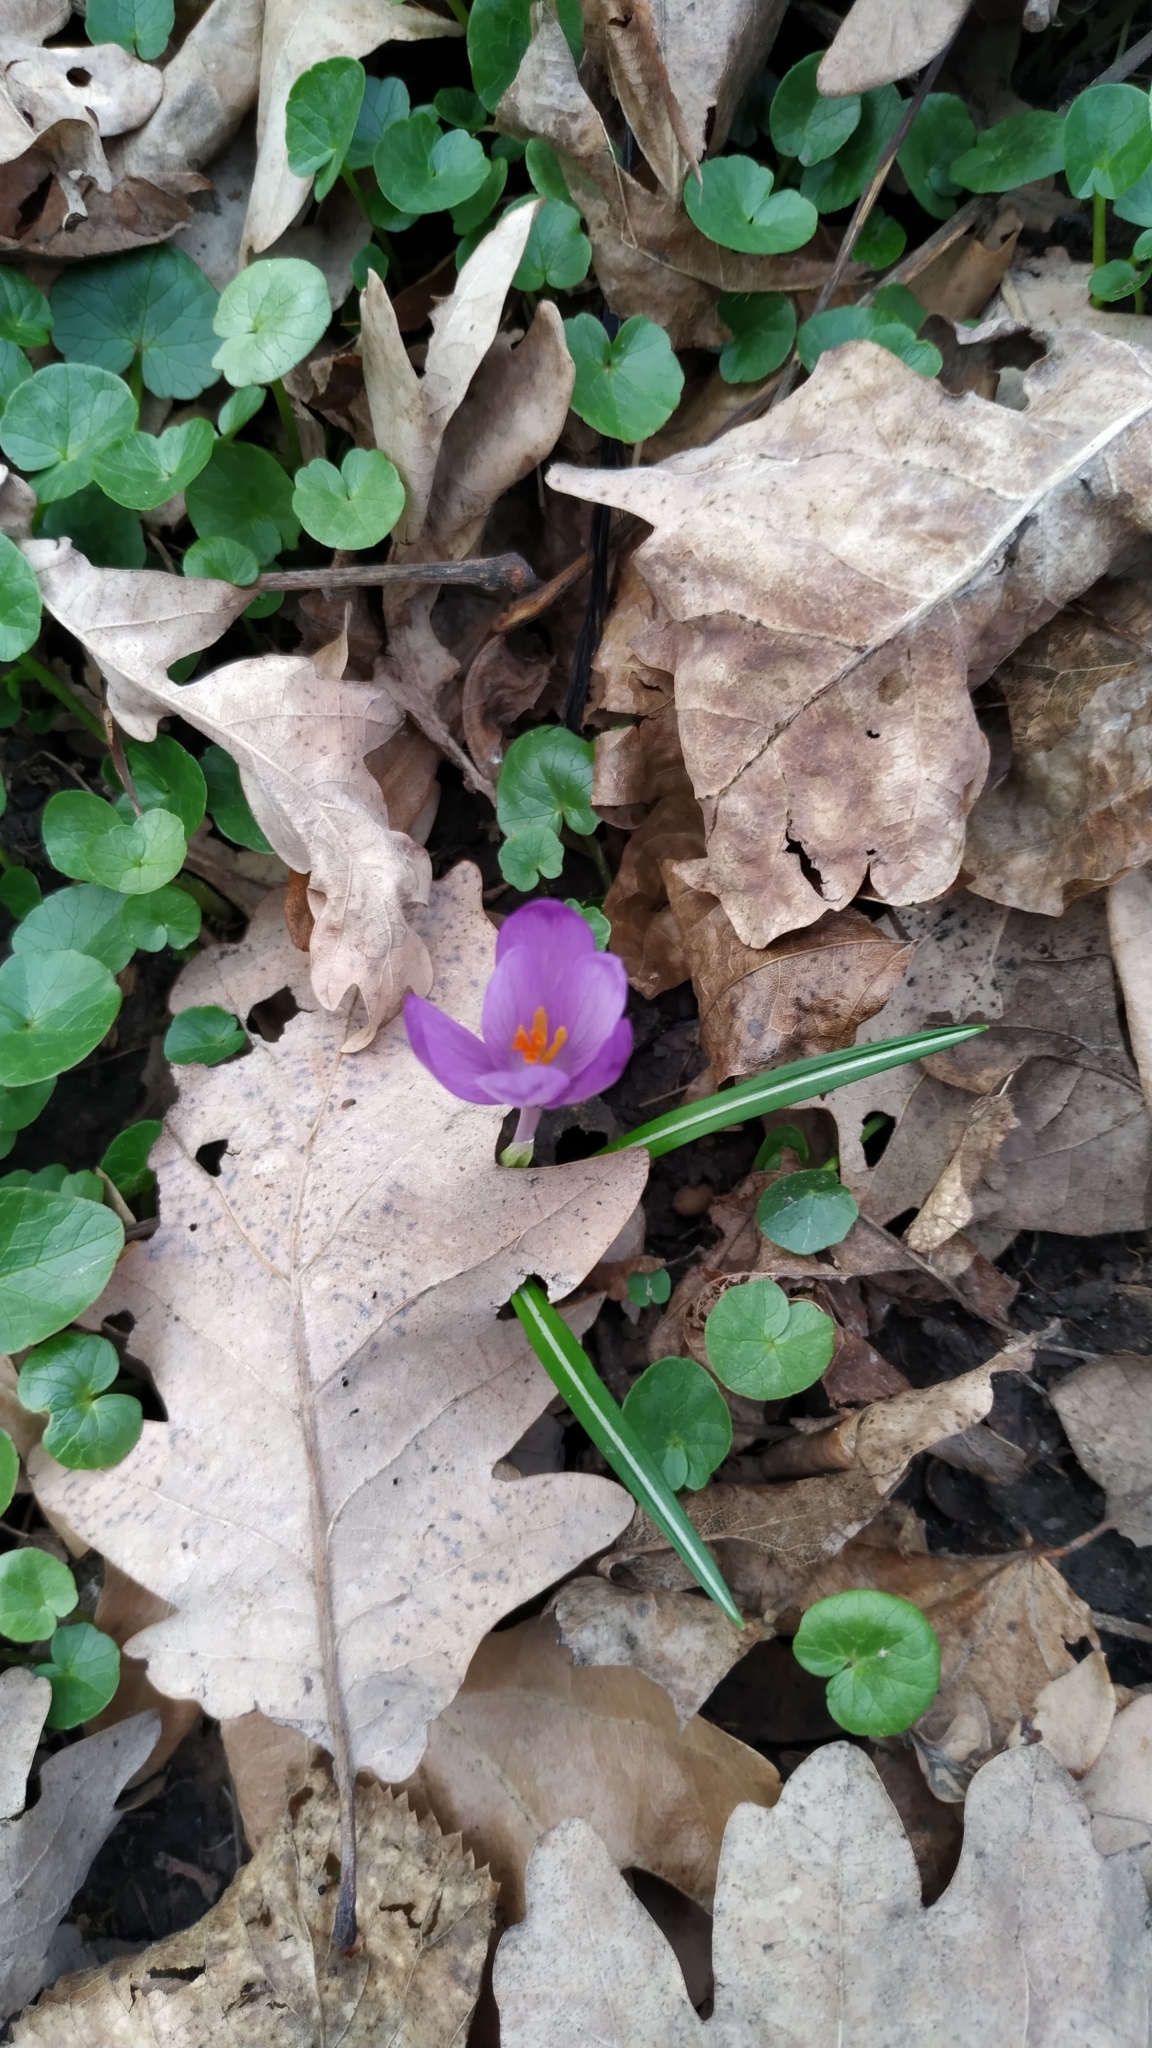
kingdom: Plantae
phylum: Tracheophyta
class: Liliopsida
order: Asparagales
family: Iridaceae
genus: Crocus
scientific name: Crocus heuffelianus
